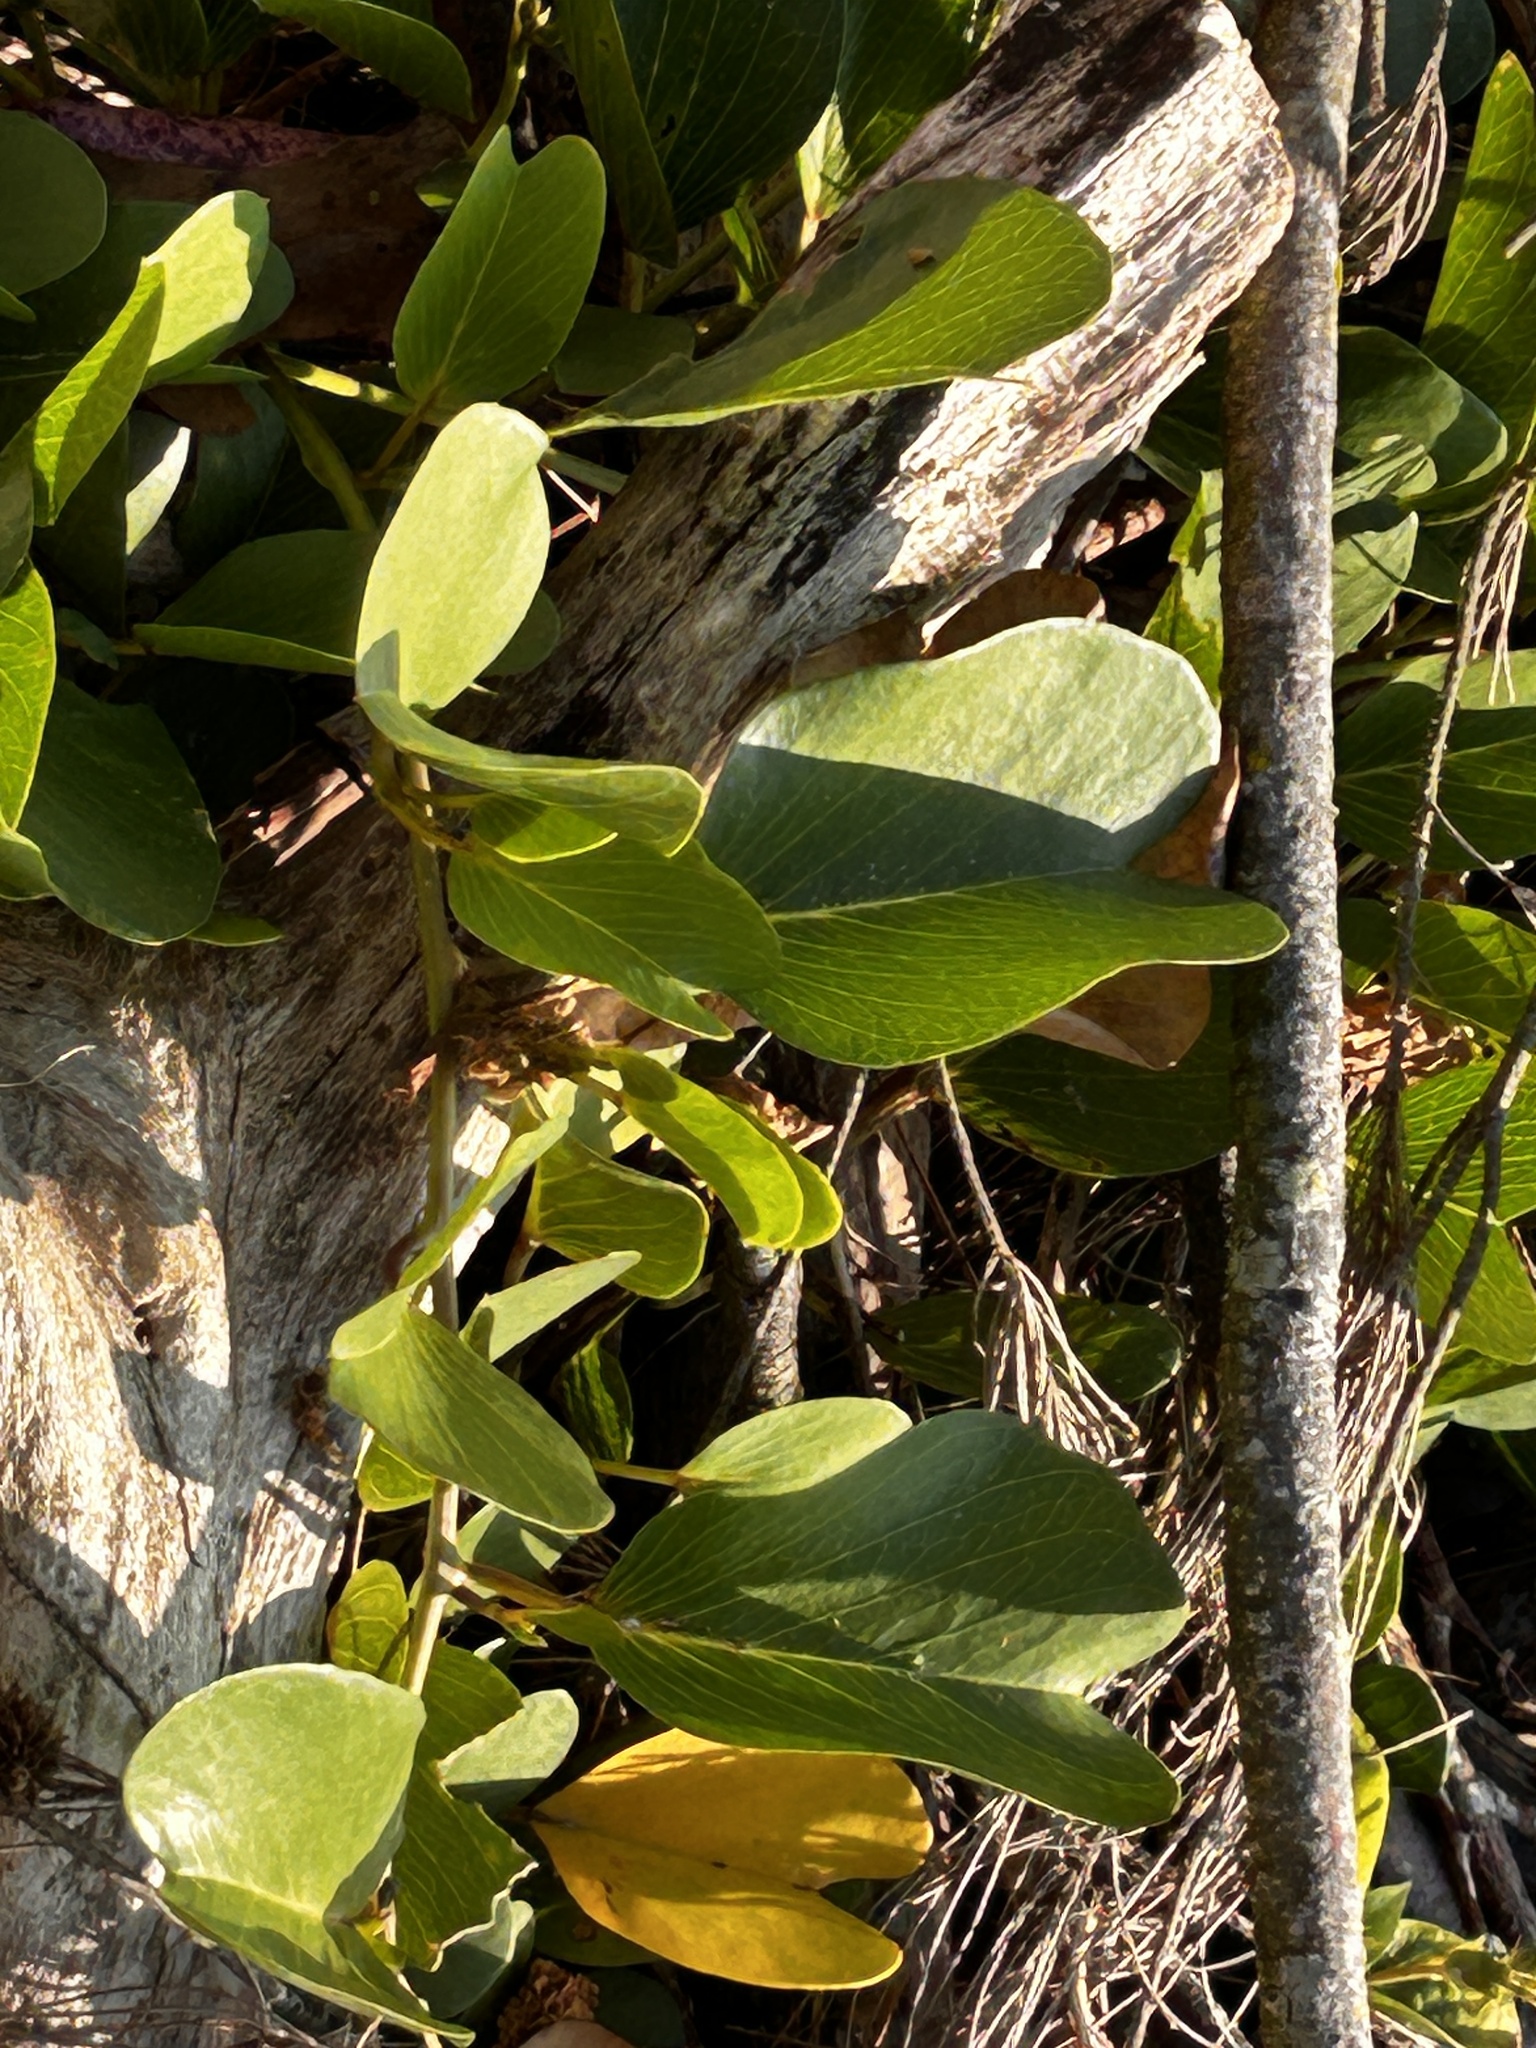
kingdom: Plantae
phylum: Tracheophyta
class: Magnoliopsida
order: Solanales
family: Convolvulaceae
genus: Ipomoea
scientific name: Ipomoea pes-caprae
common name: Beach morning glory
